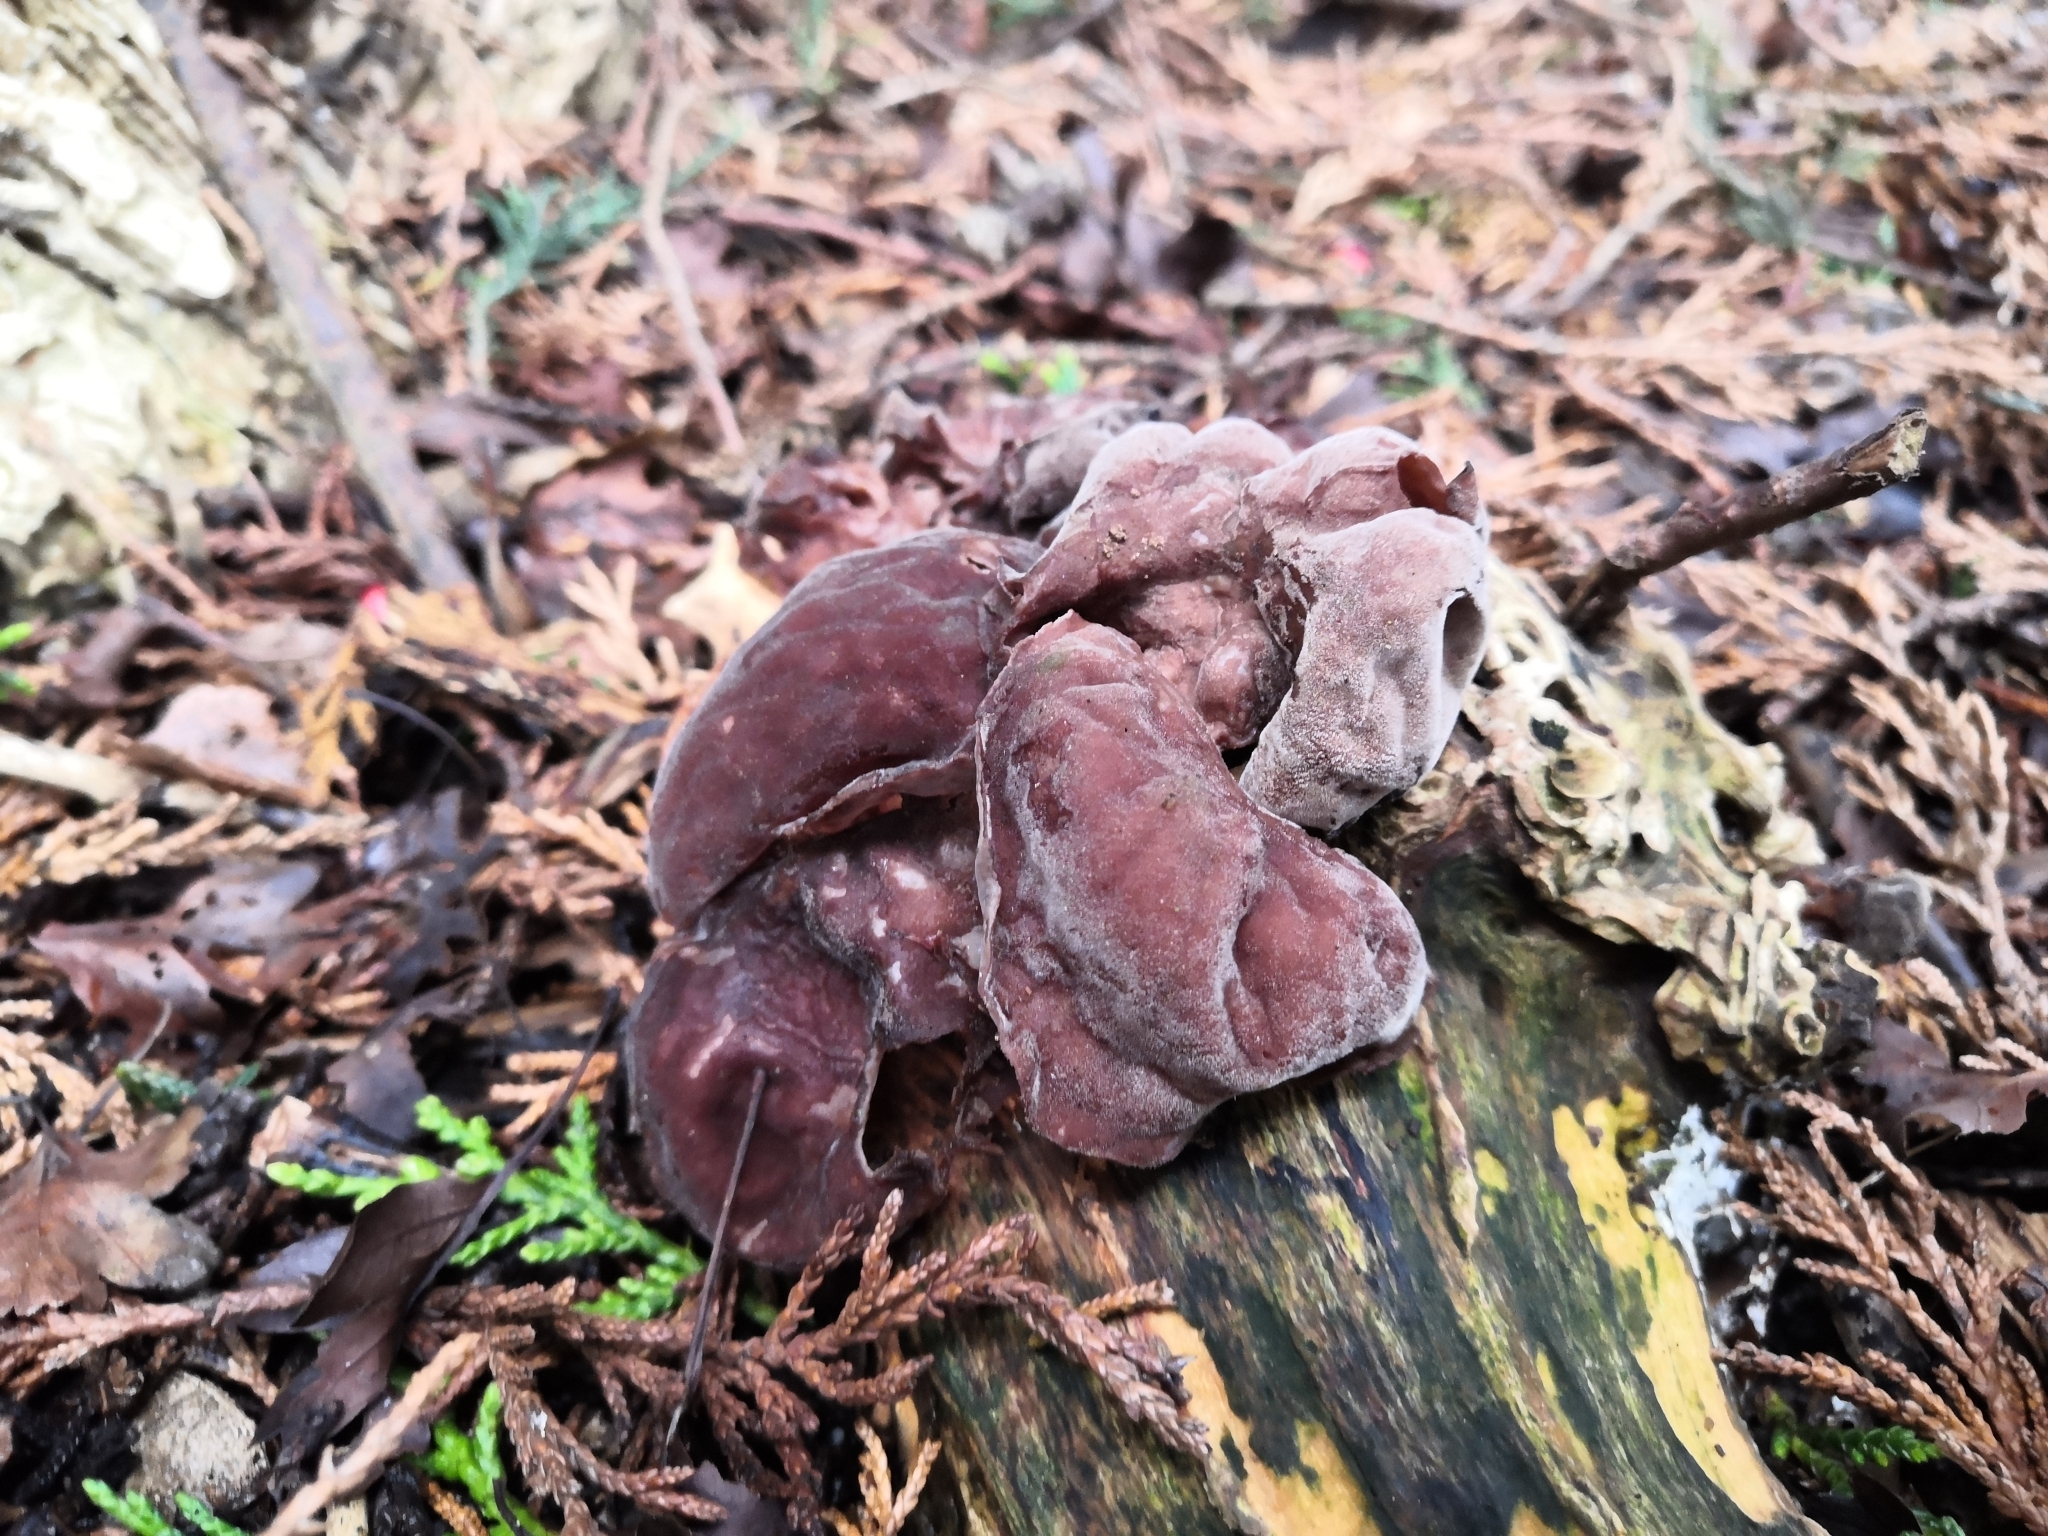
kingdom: Fungi
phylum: Basidiomycota
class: Agaricomycetes
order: Auriculariales
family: Auriculariaceae
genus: Auricularia
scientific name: Auricularia auricula-judae
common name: Jelly ear
